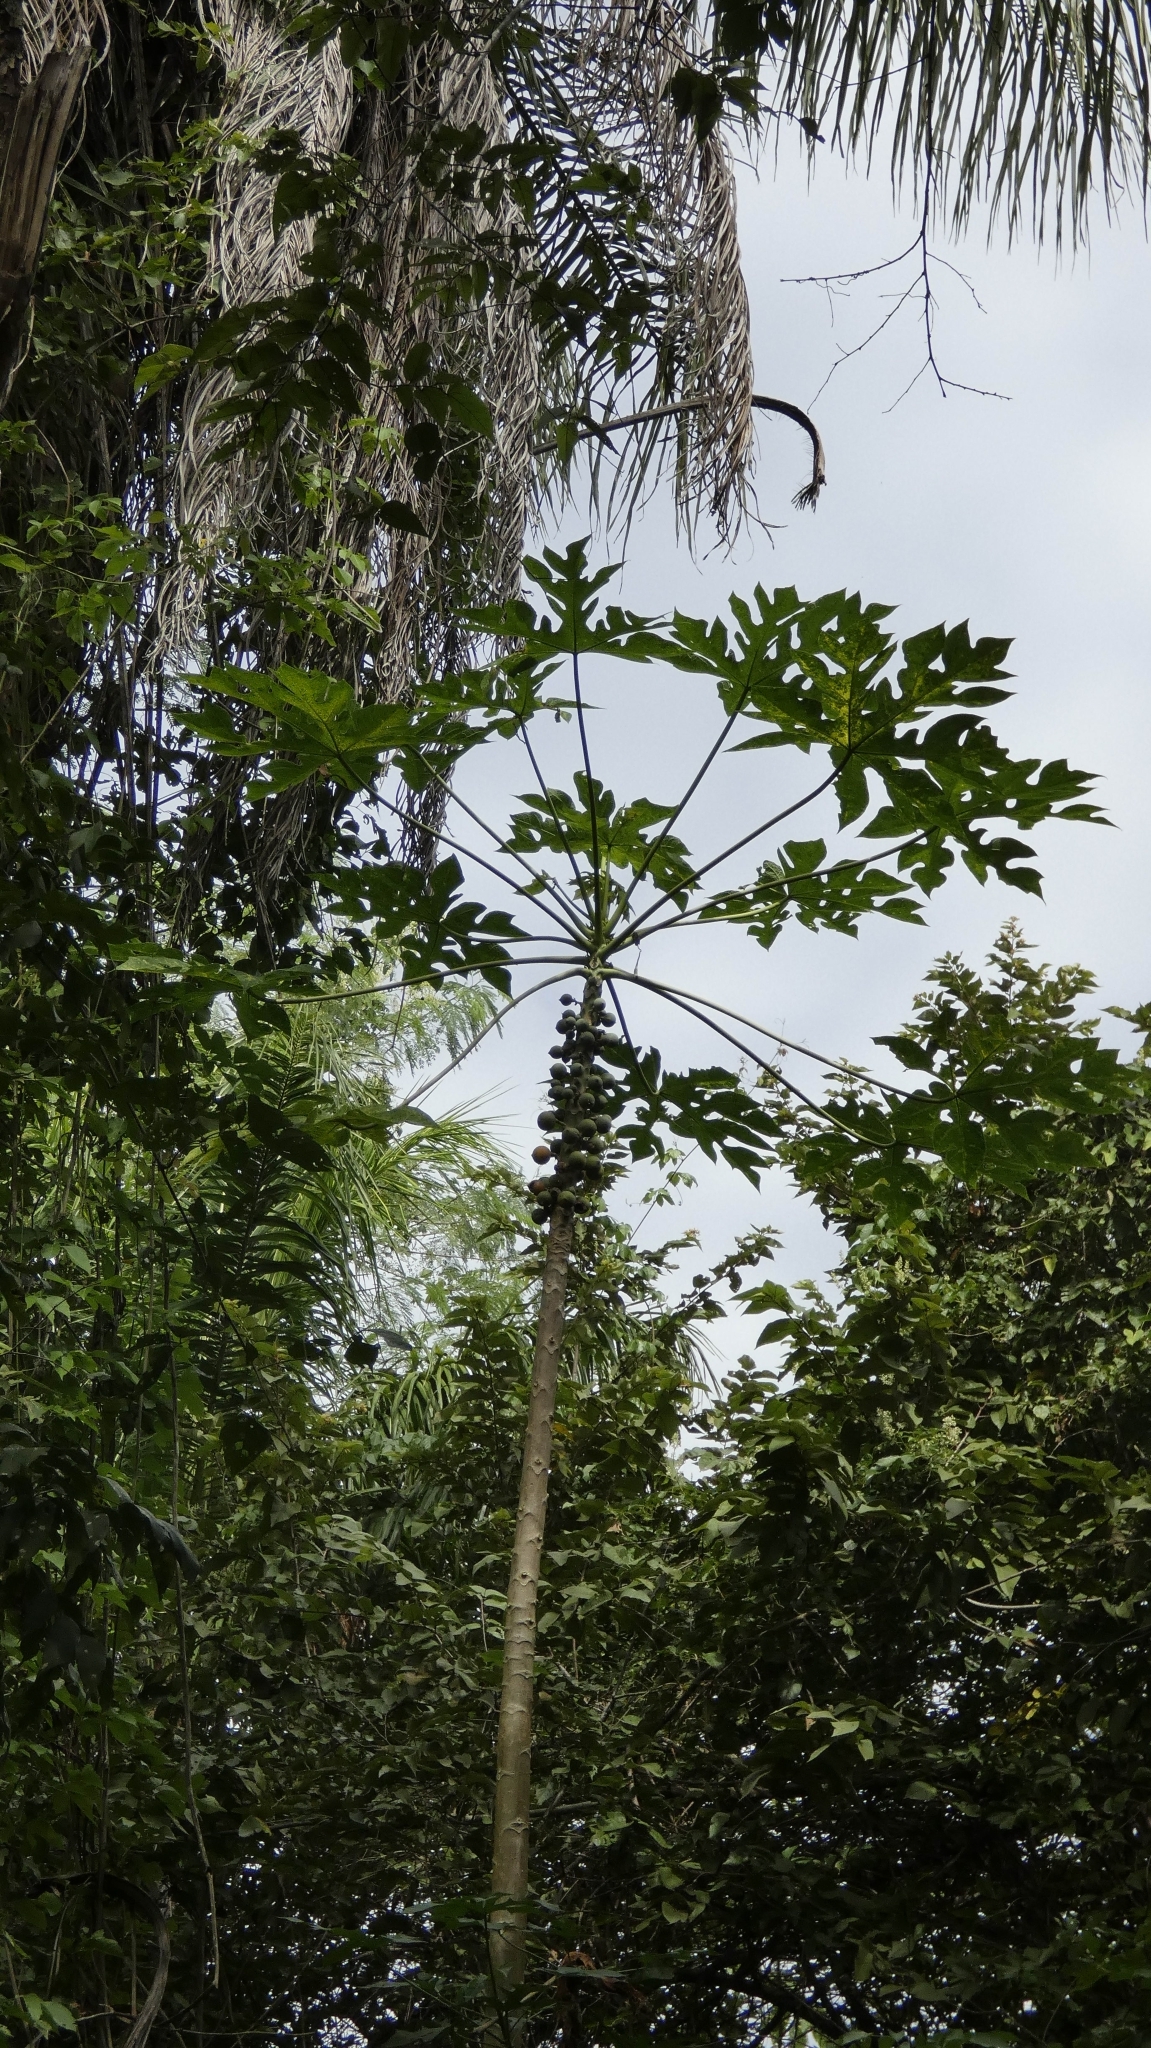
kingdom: Plantae
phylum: Tracheophyta
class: Magnoliopsida
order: Brassicales
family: Caricaceae
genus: Carica
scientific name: Carica papaya
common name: Papaya
